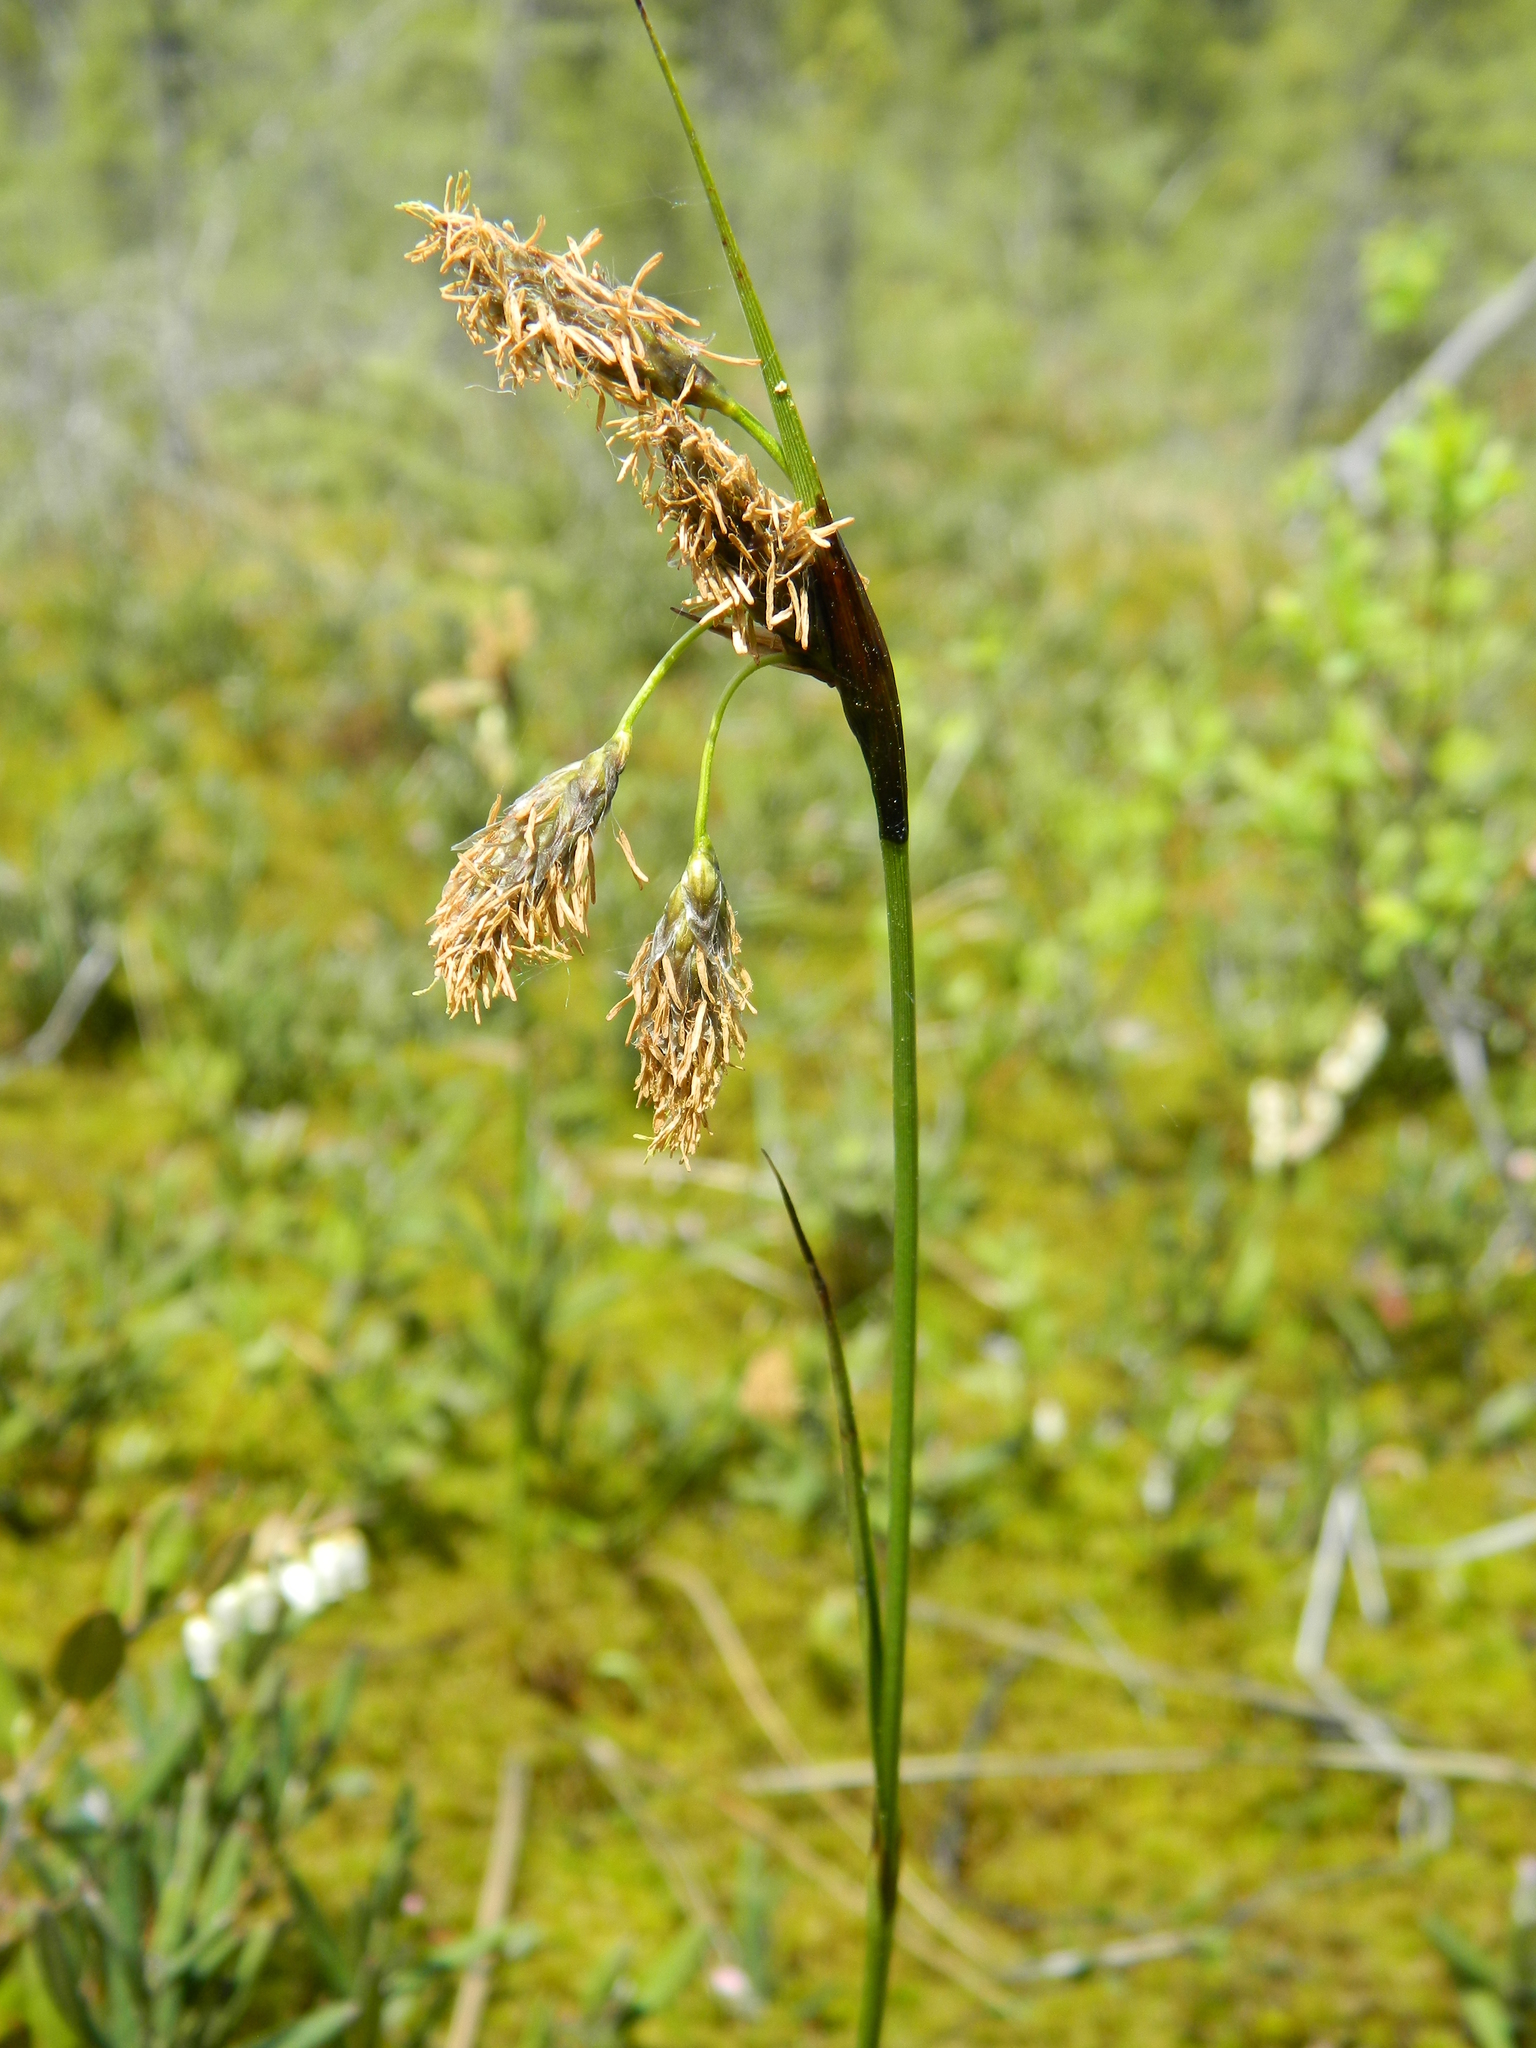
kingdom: Plantae
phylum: Tracheophyta
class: Liliopsida
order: Poales
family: Cyperaceae
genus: Eriophorum
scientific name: Eriophorum angustifolium
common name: Common cottongrass
